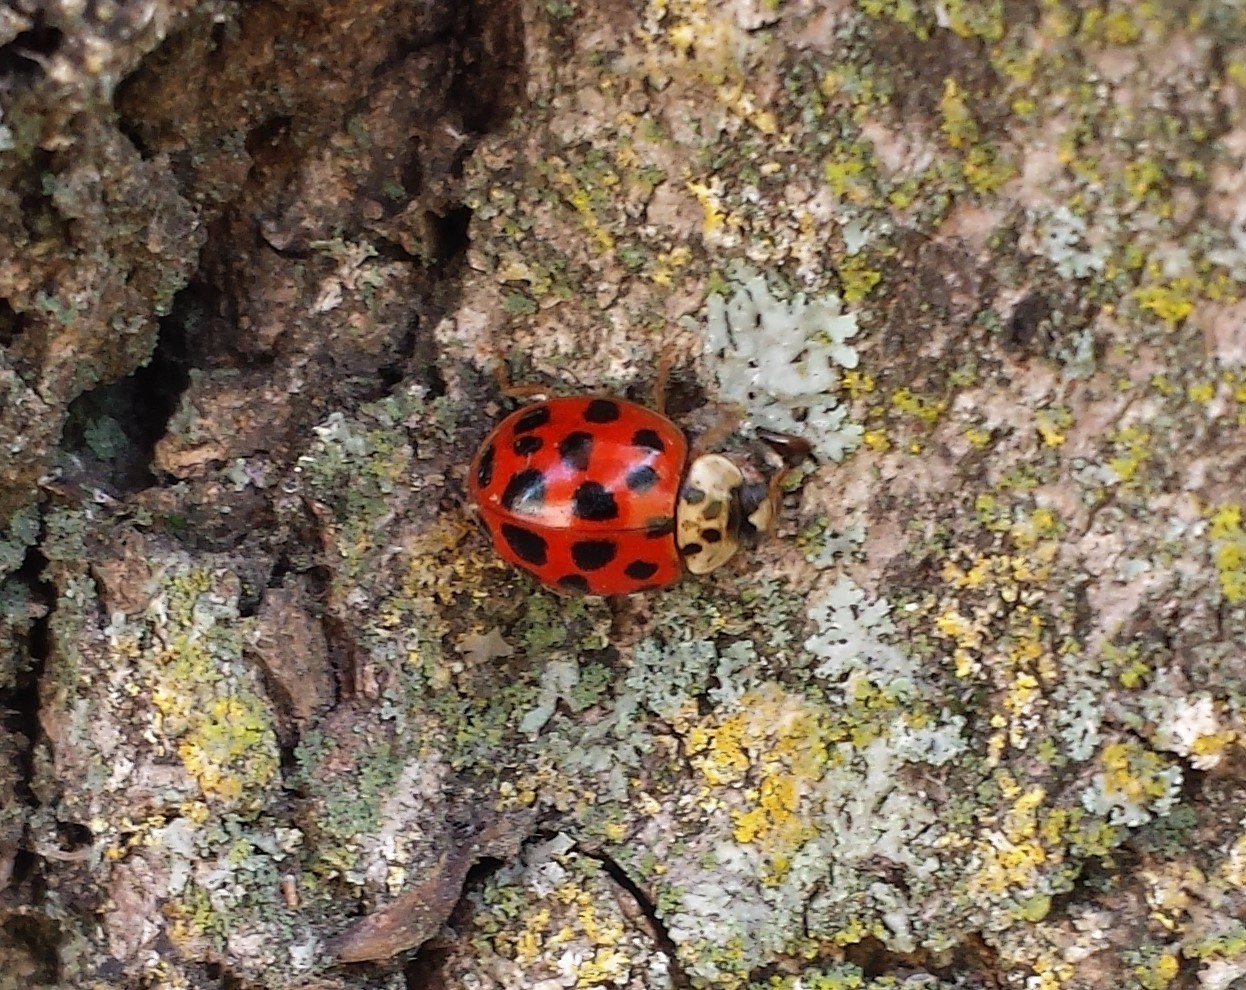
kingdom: Animalia
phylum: Arthropoda
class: Insecta
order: Coleoptera
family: Coccinellidae
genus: Harmonia
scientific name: Harmonia axyridis
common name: Harlequin ladybird
